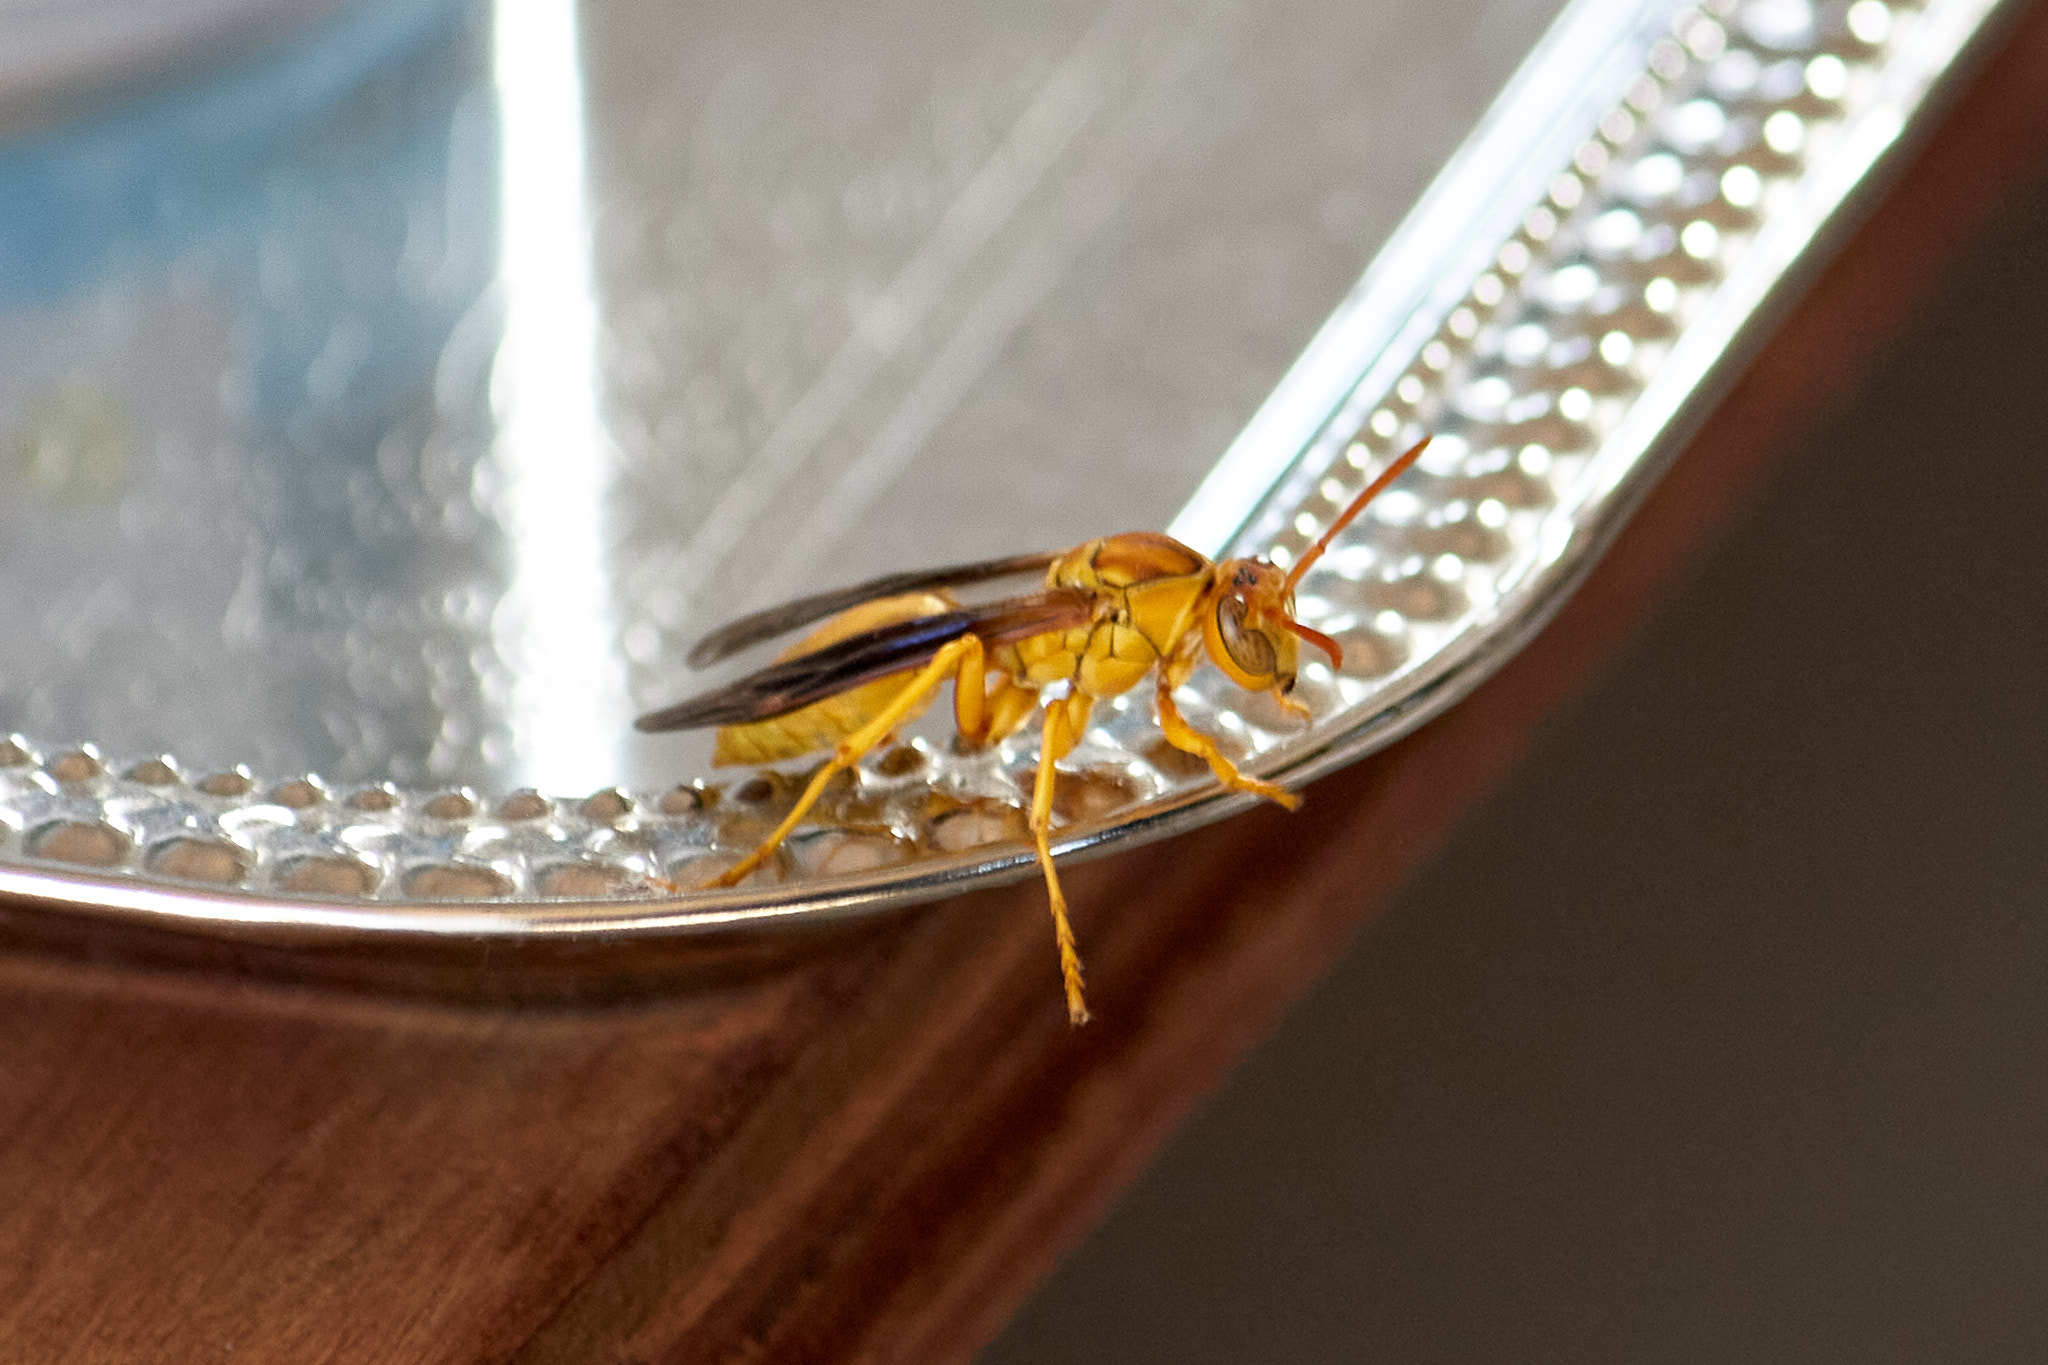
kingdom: Animalia
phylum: Arthropoda
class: Insecta
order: Hymenoptera
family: Eumenidae
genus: Polistes
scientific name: Polistes flavus
